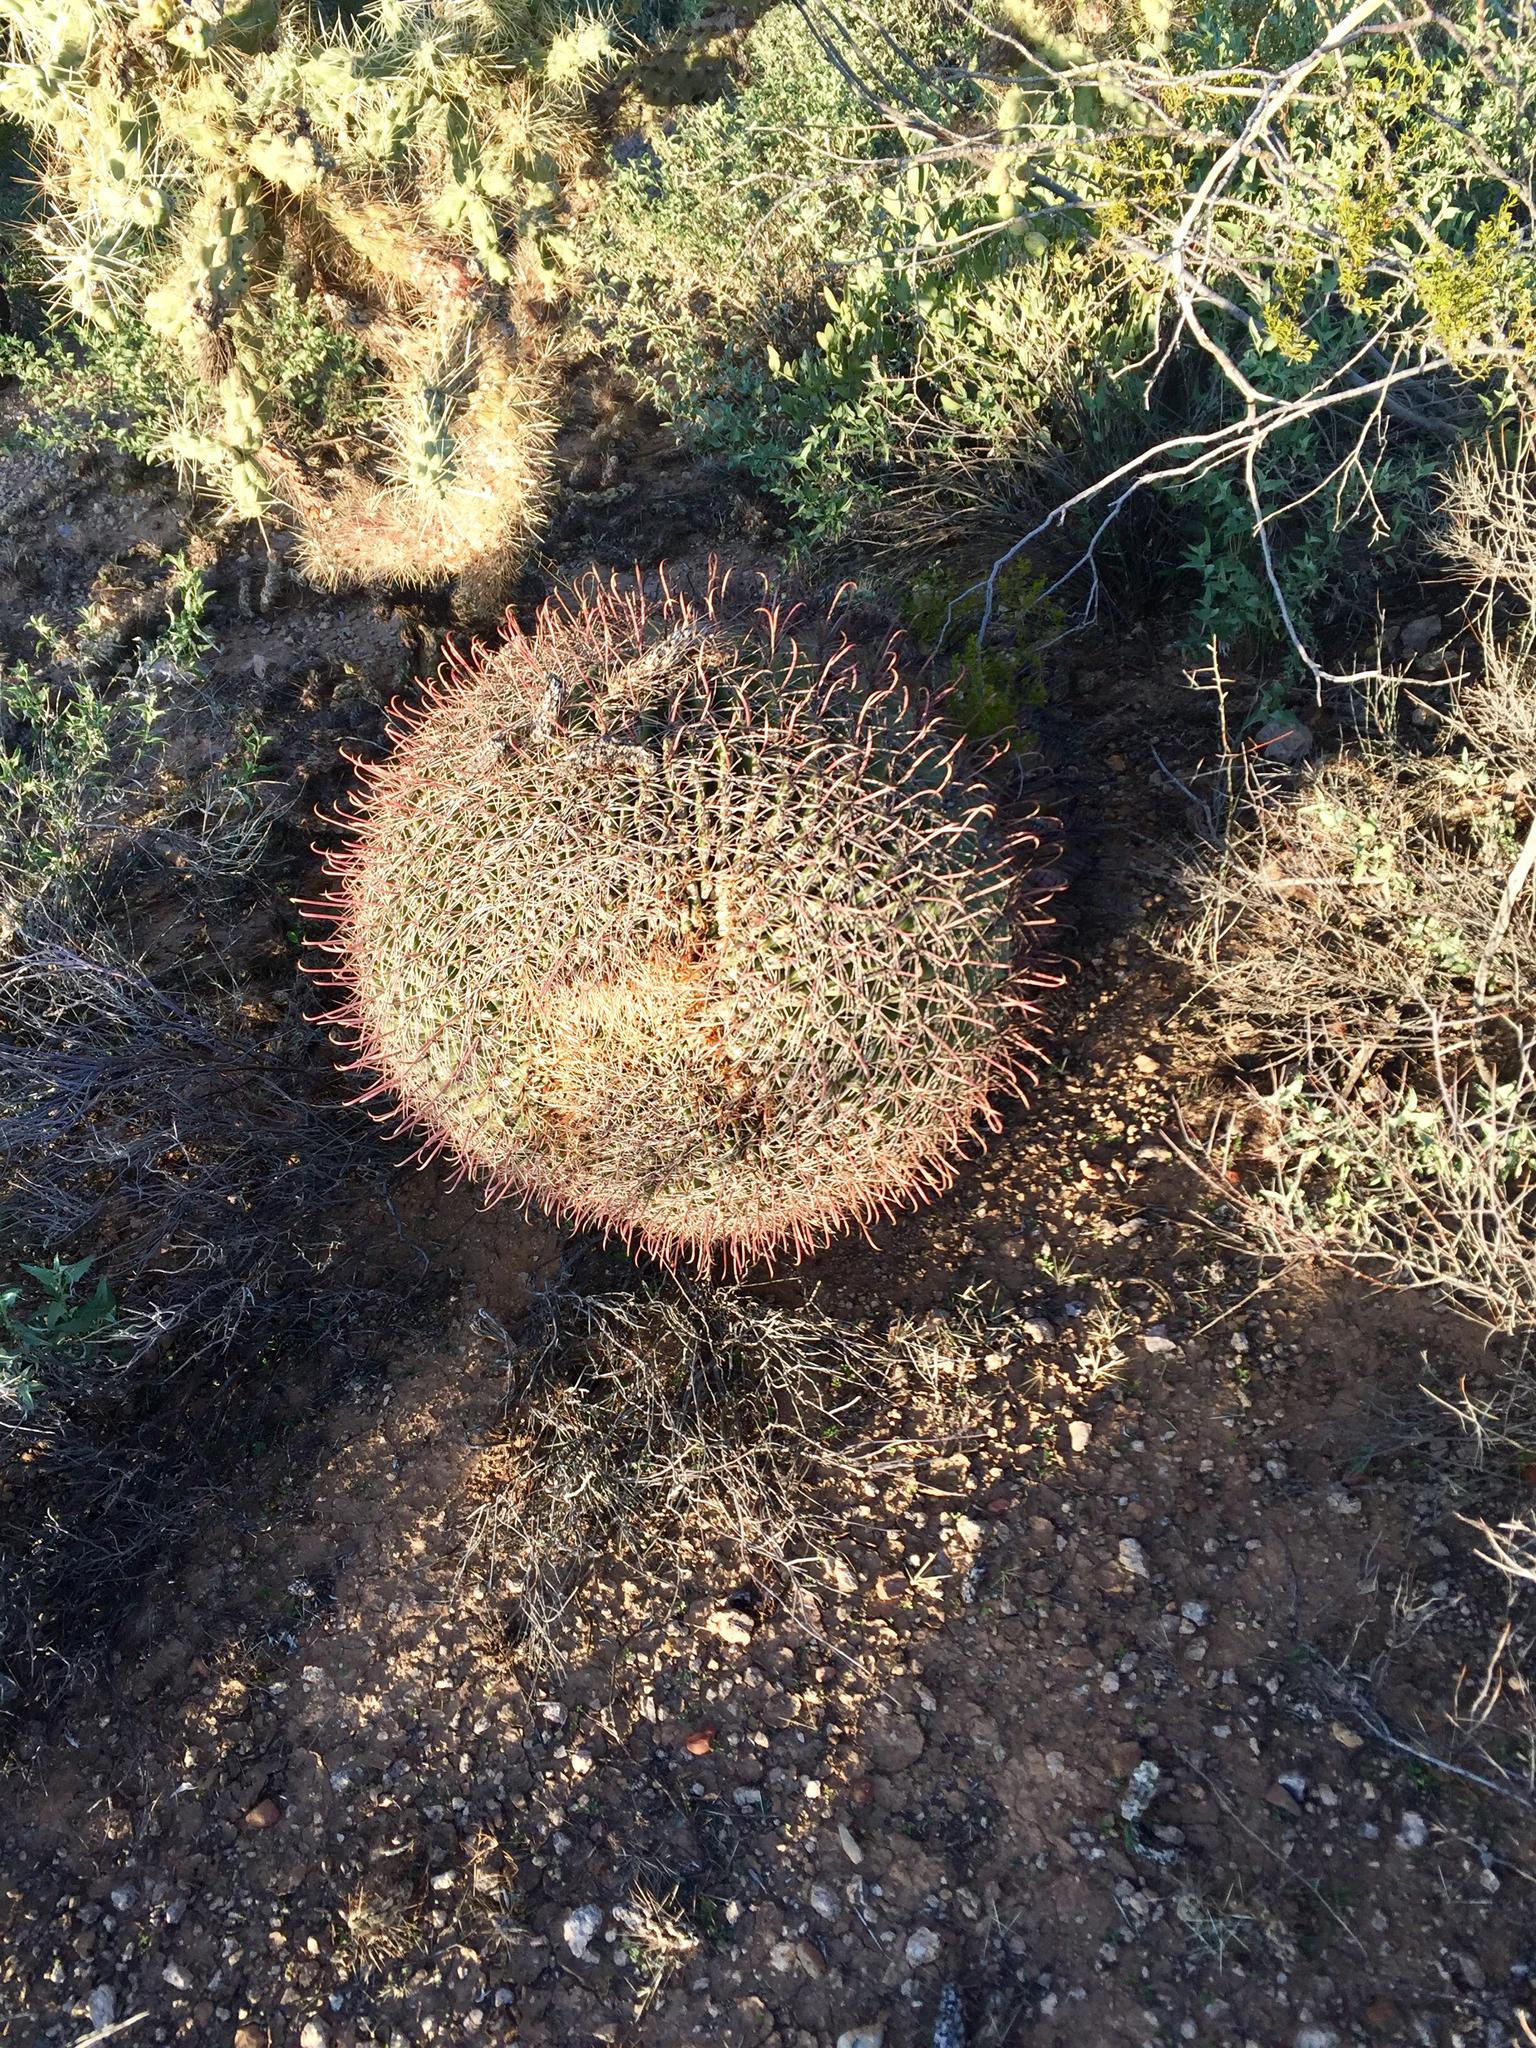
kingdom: Plantae
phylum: Tracheophyta
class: Magnoliopsida
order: Caryophyllales
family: Cactaceae
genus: Ferocactus
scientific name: Ferocactus wislizeni
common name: Candy barrel cactus
